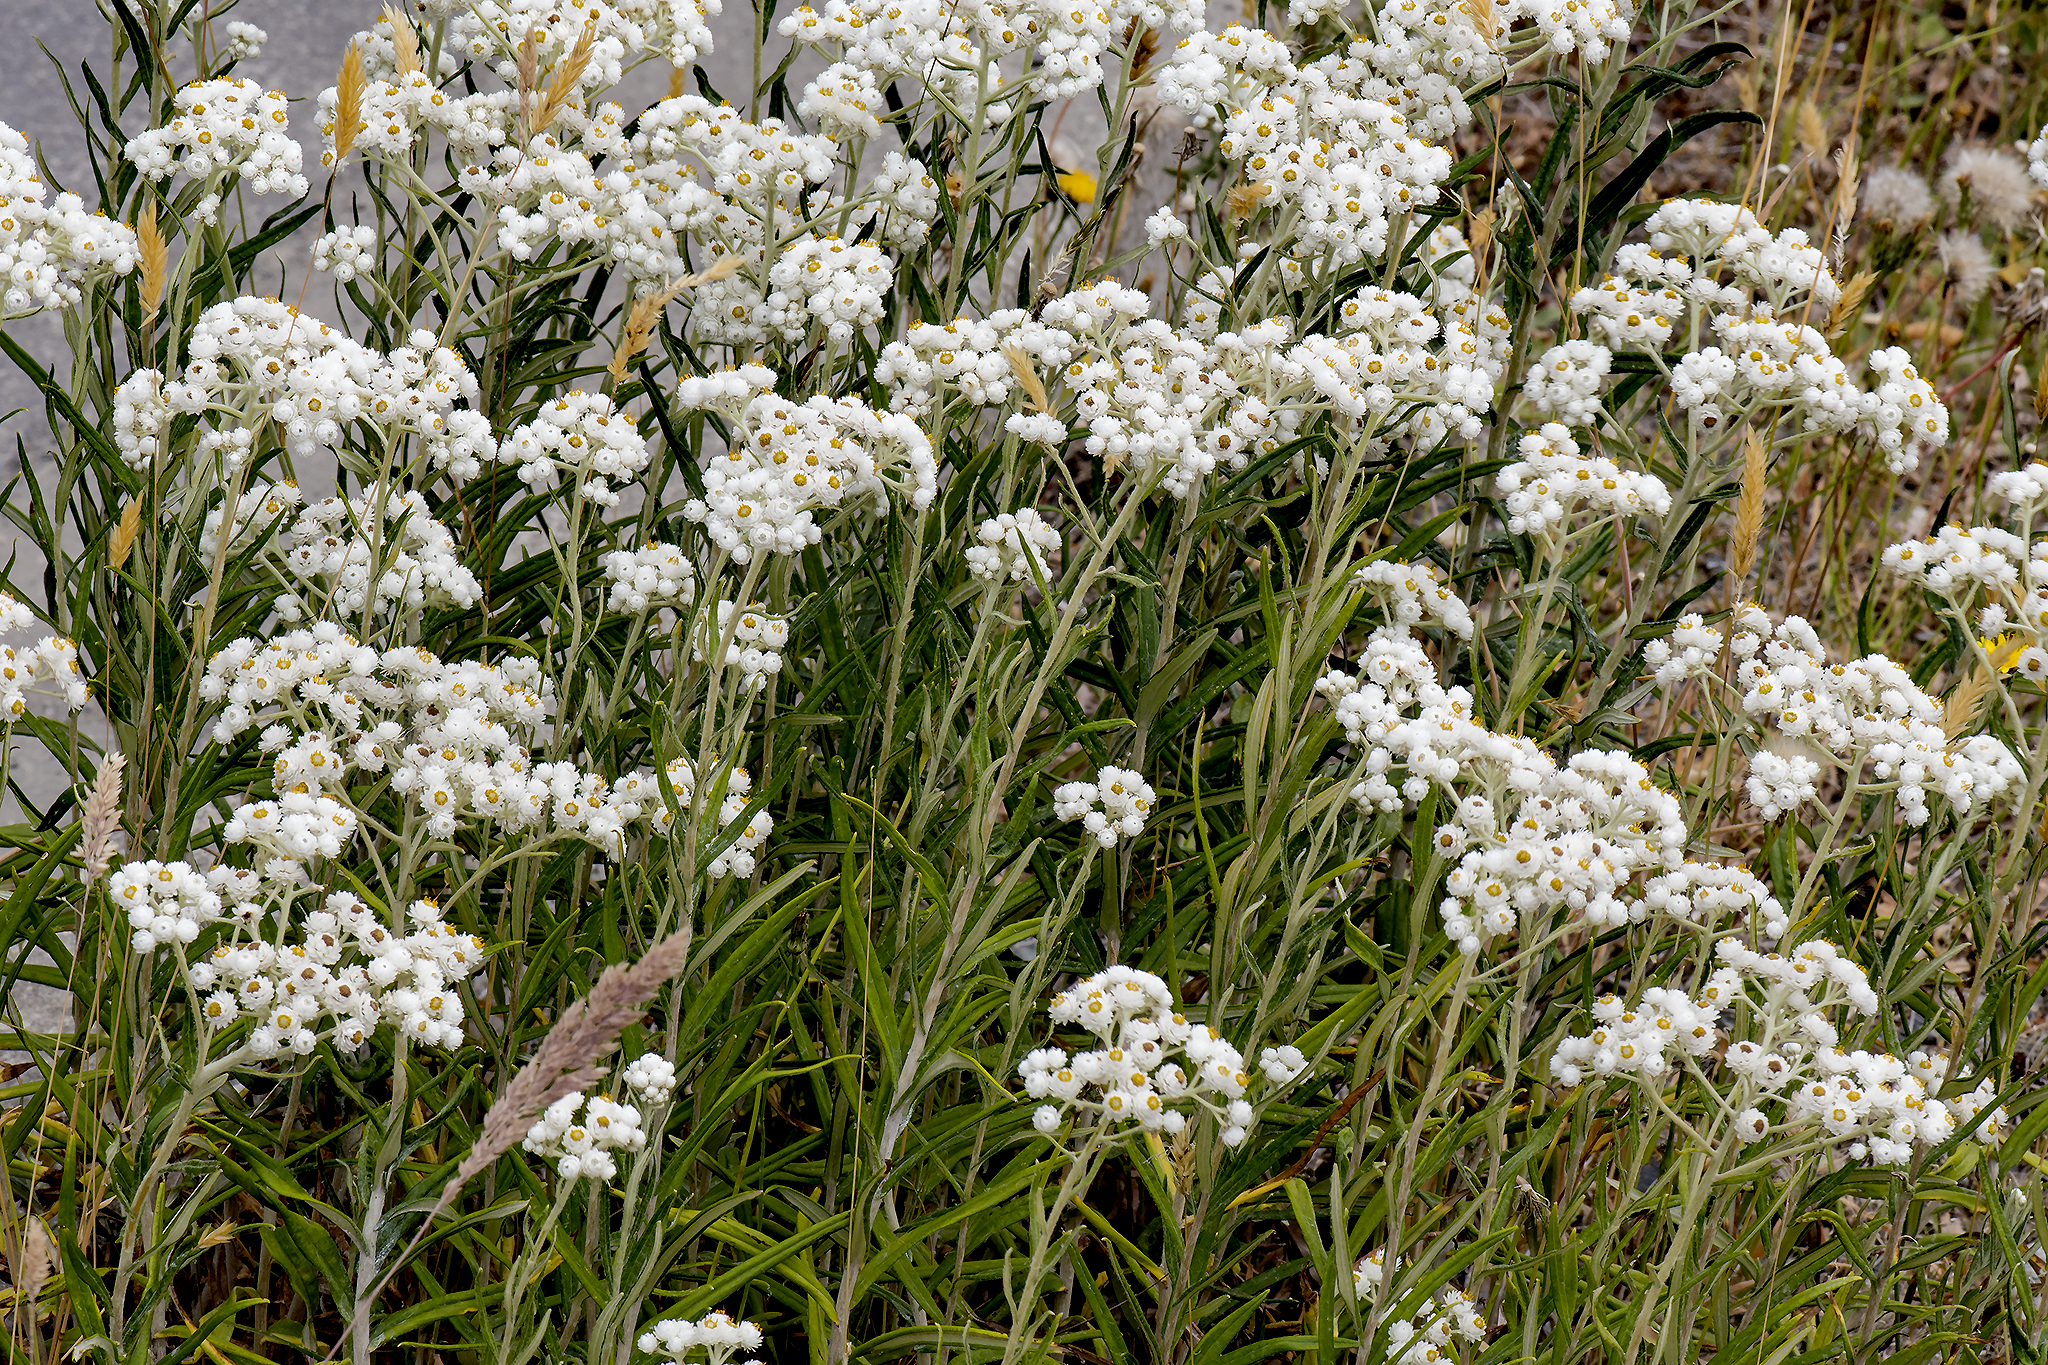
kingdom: Plantae
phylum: Tracheophyta
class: Magnoliopsida
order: Asterales
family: Asteraceae
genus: Anaphalis
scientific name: Anaphalis margaritacea
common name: Pearly everlasting
